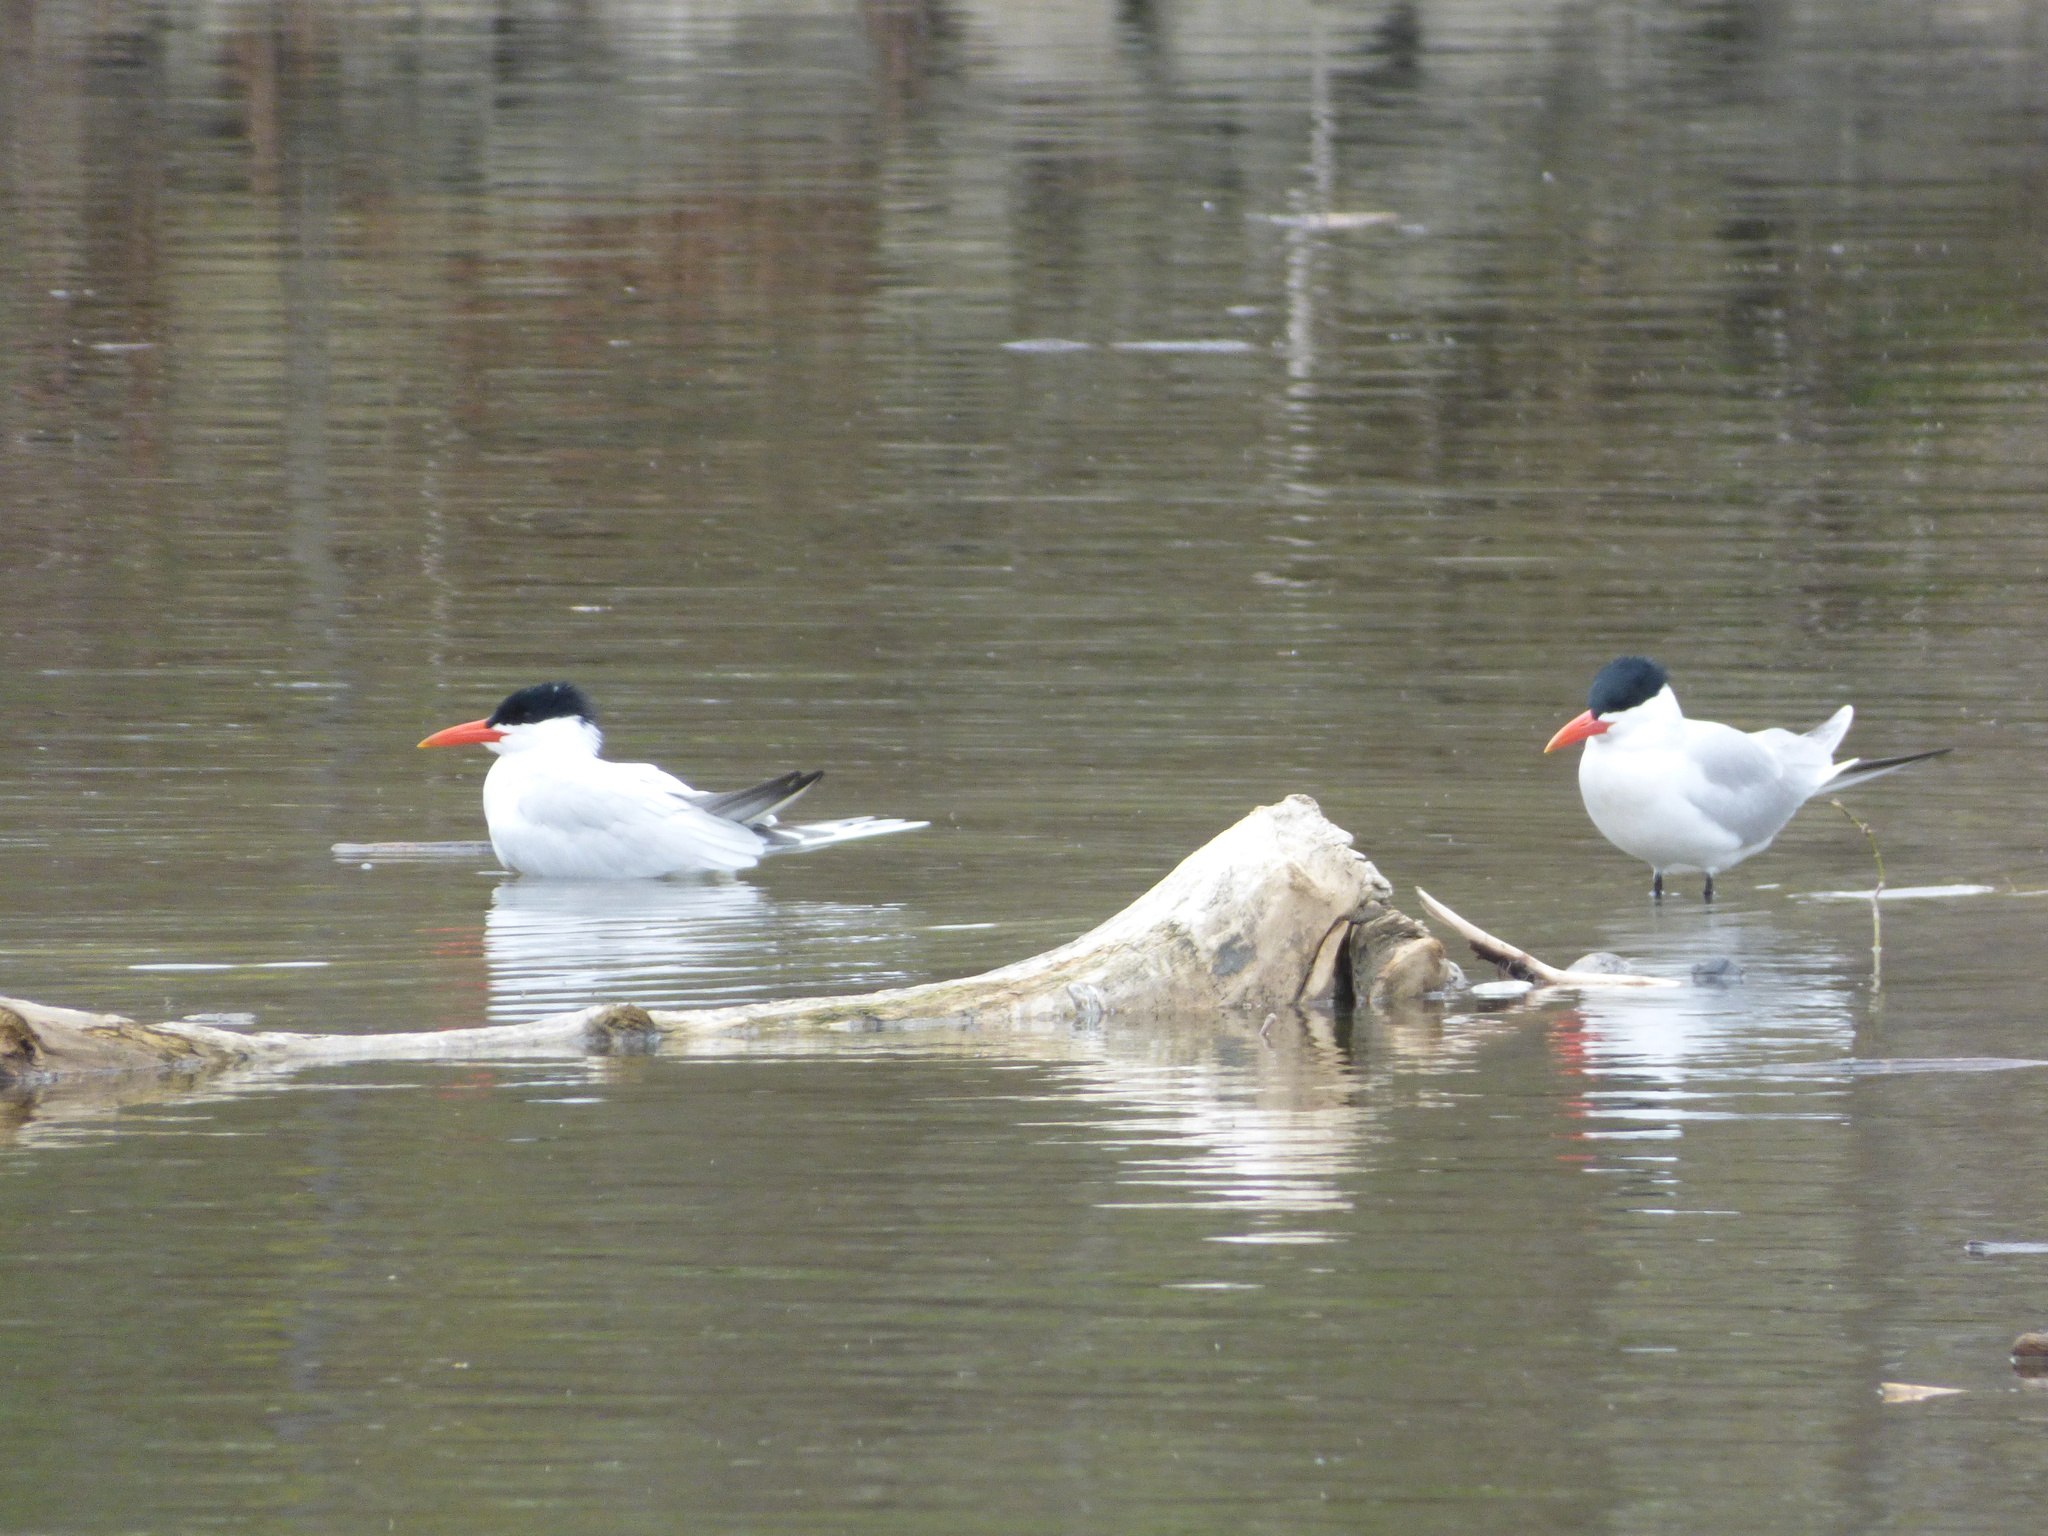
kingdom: Animalia
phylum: Chordata
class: Aves
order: Charadriiformes
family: Laridae
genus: Hydroprogne
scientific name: Hydroprogne caspia
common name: Caspian tern
